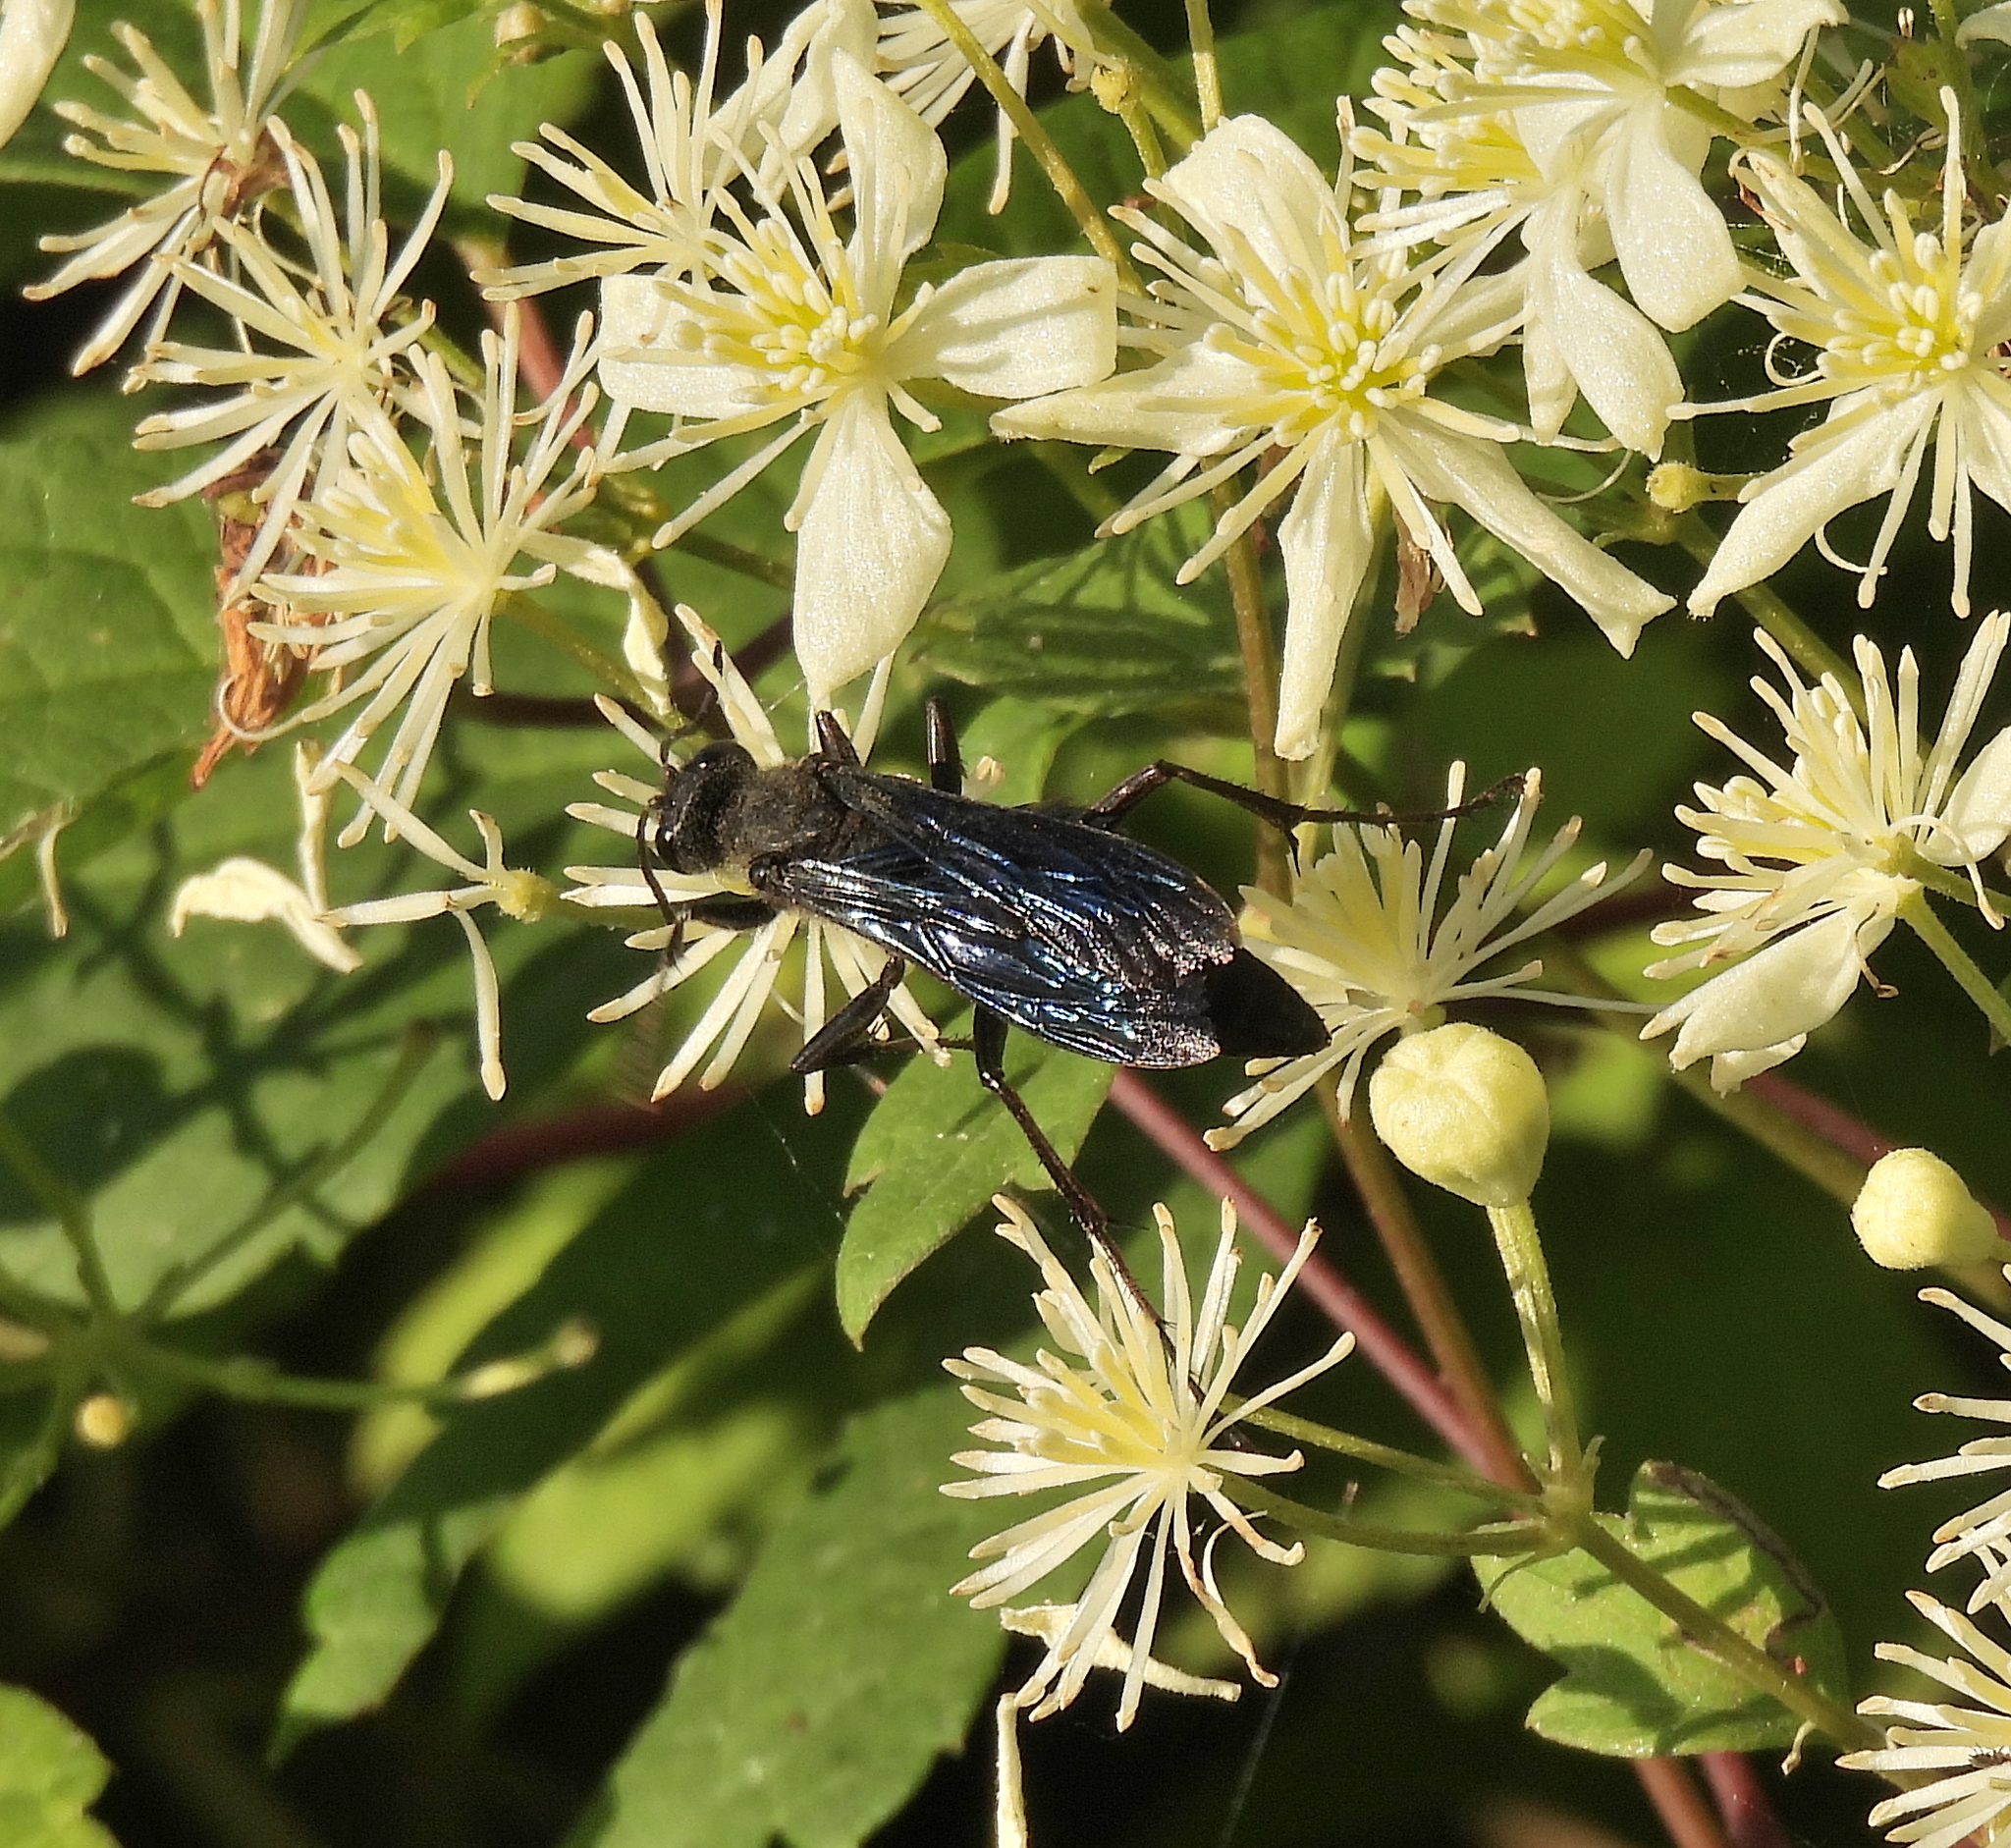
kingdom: Animalia
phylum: Arthropoda
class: Insecta
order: Hymenoptera
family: Sphecidae
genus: Sphex
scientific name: Sphex pensylvanicus
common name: Great black digger wasp
